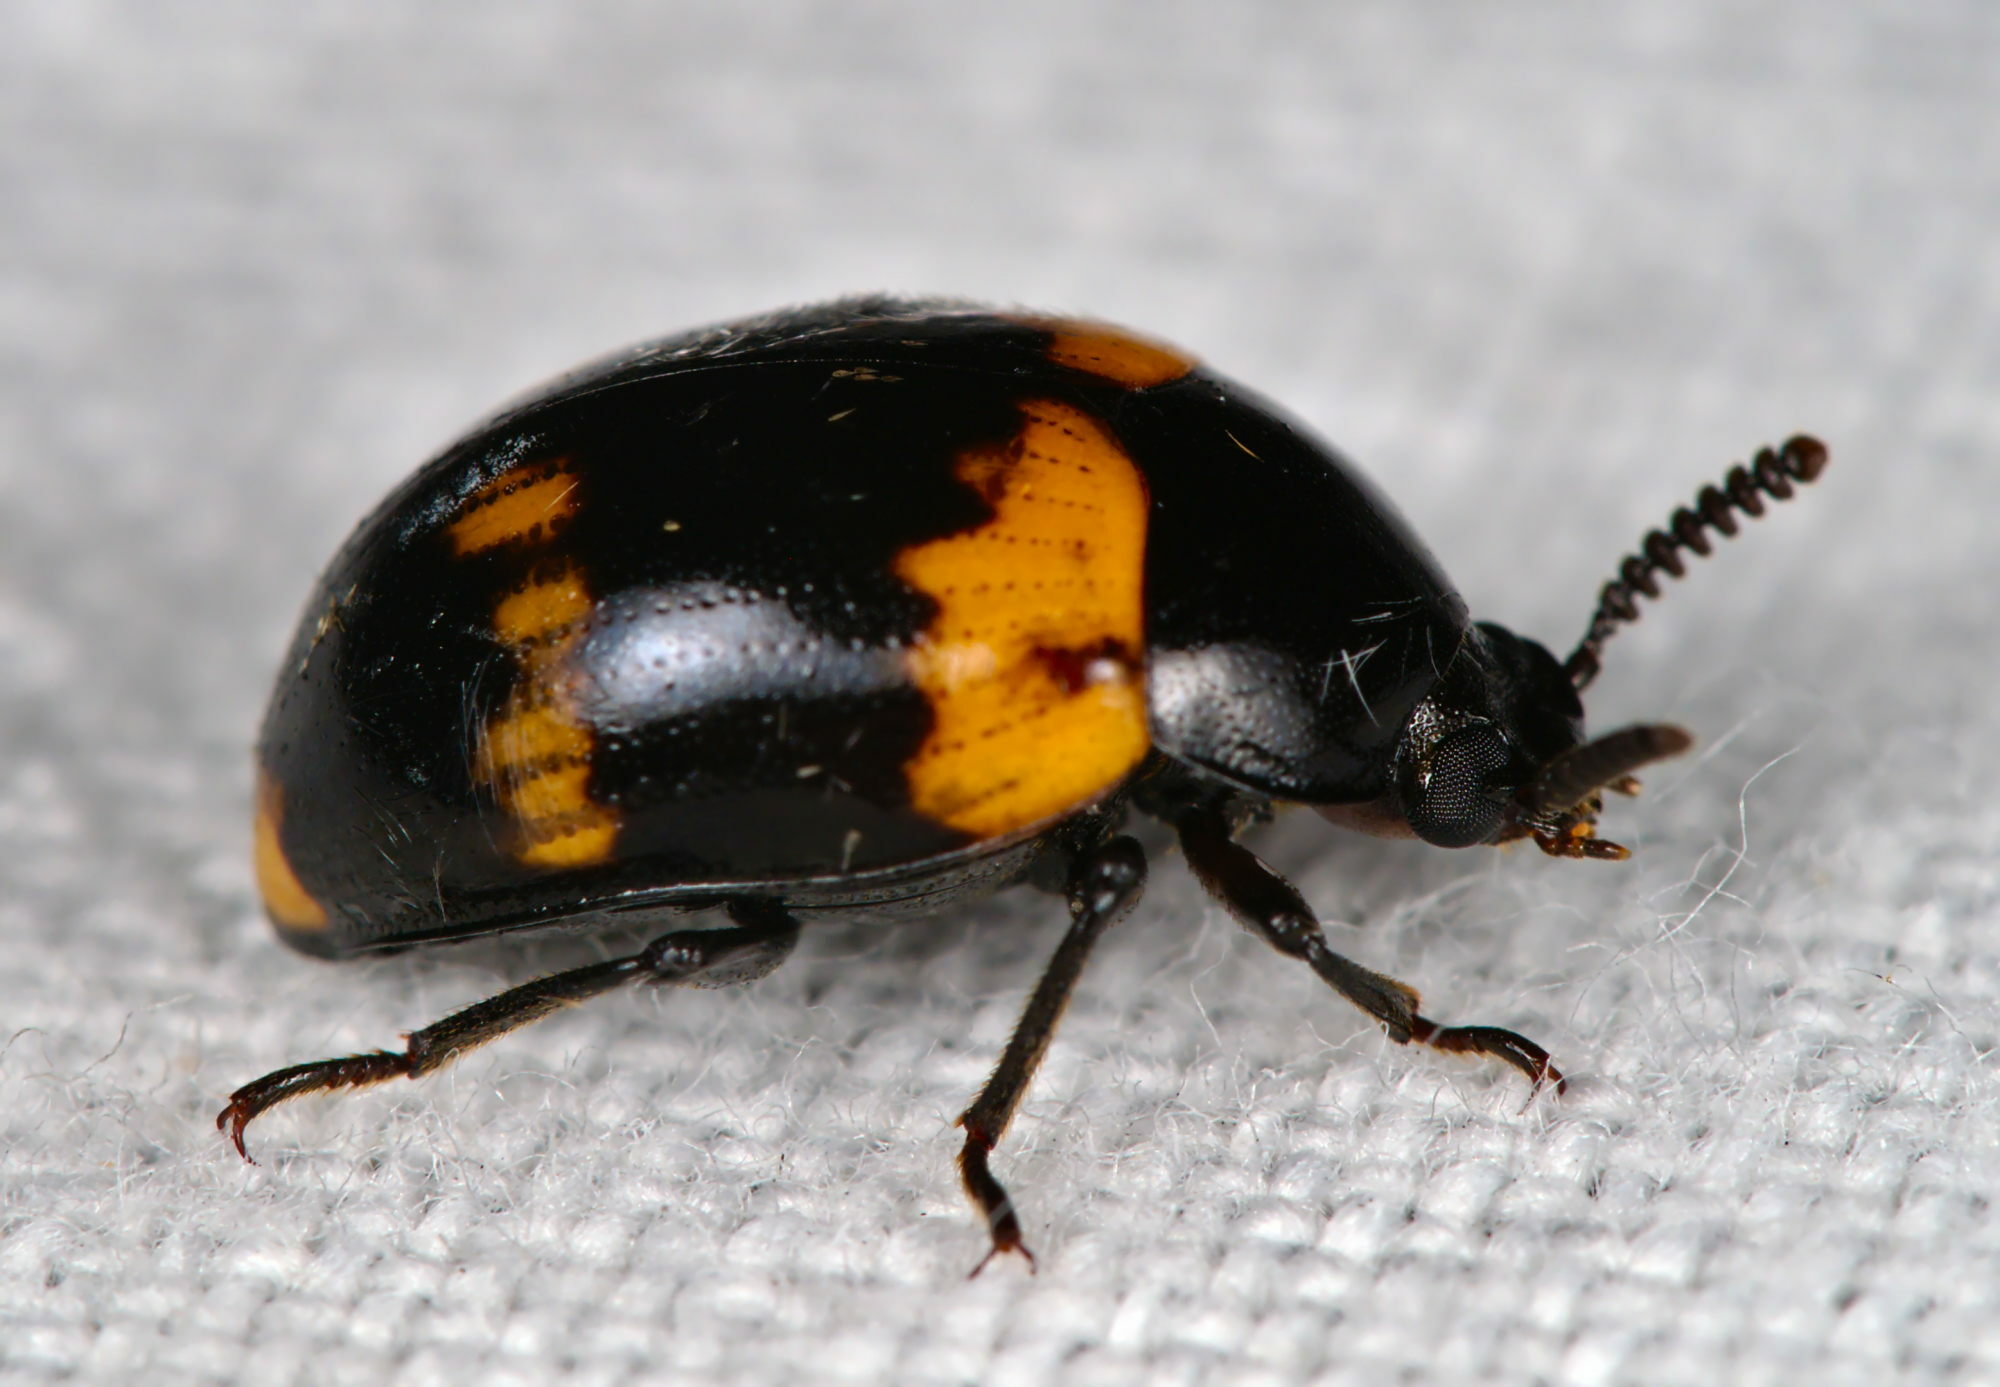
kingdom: Animalia
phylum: Arthropoda
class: Insecta
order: Coleoptera
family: Tenebrionidae
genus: Diaperis
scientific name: Diaperis boleti
